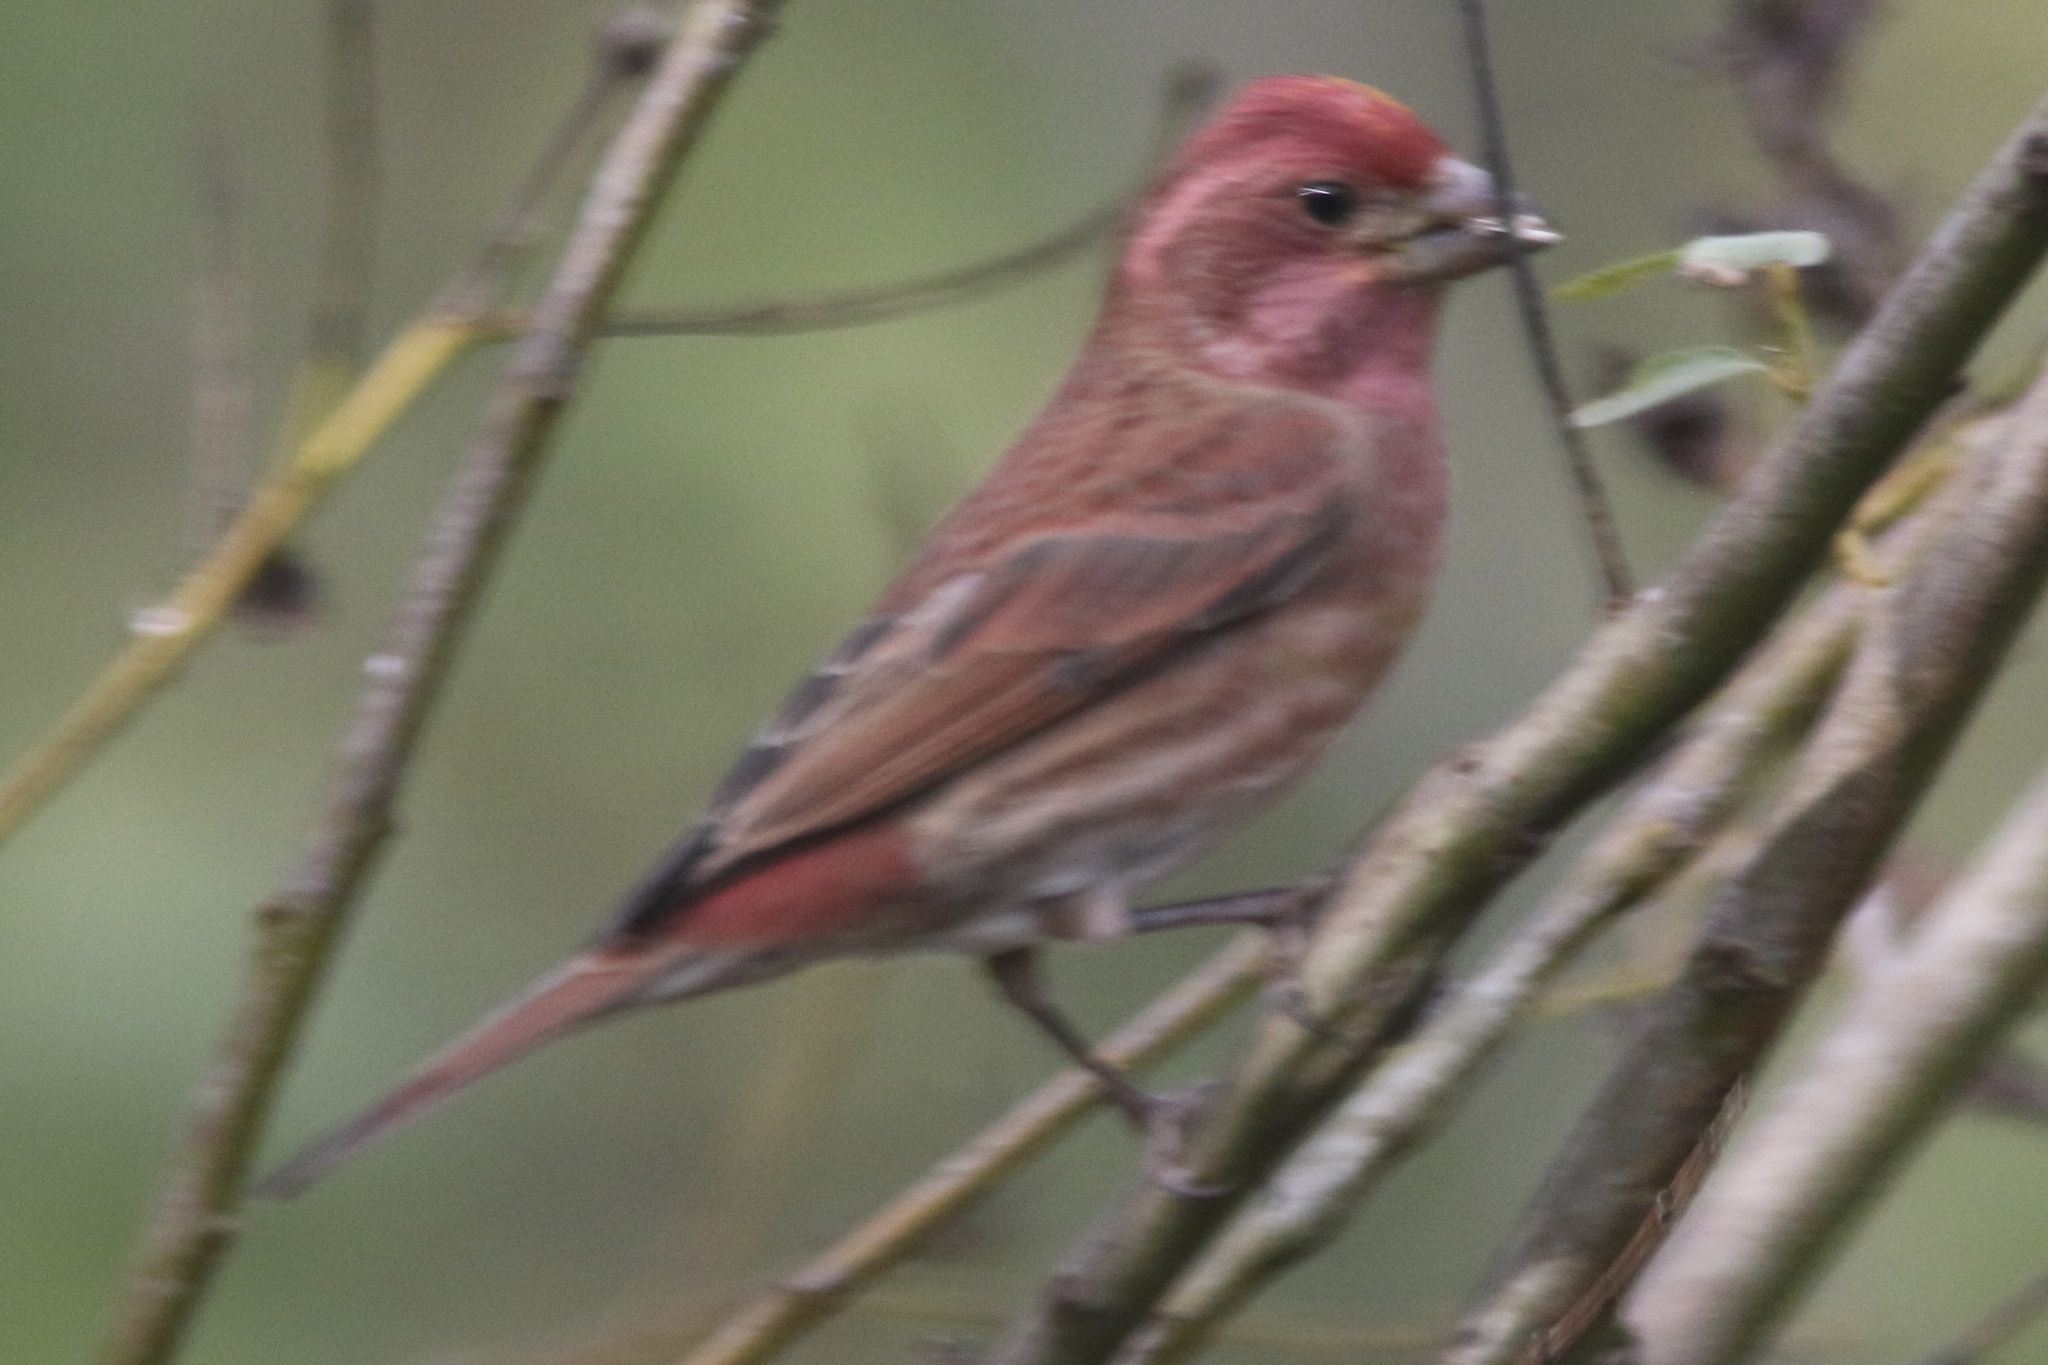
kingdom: Animalia
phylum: Chordata
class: Aves
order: Passeriformes
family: Fringillidae
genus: Haemorhous
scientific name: Haemorhous purpureus
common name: Purple finch
